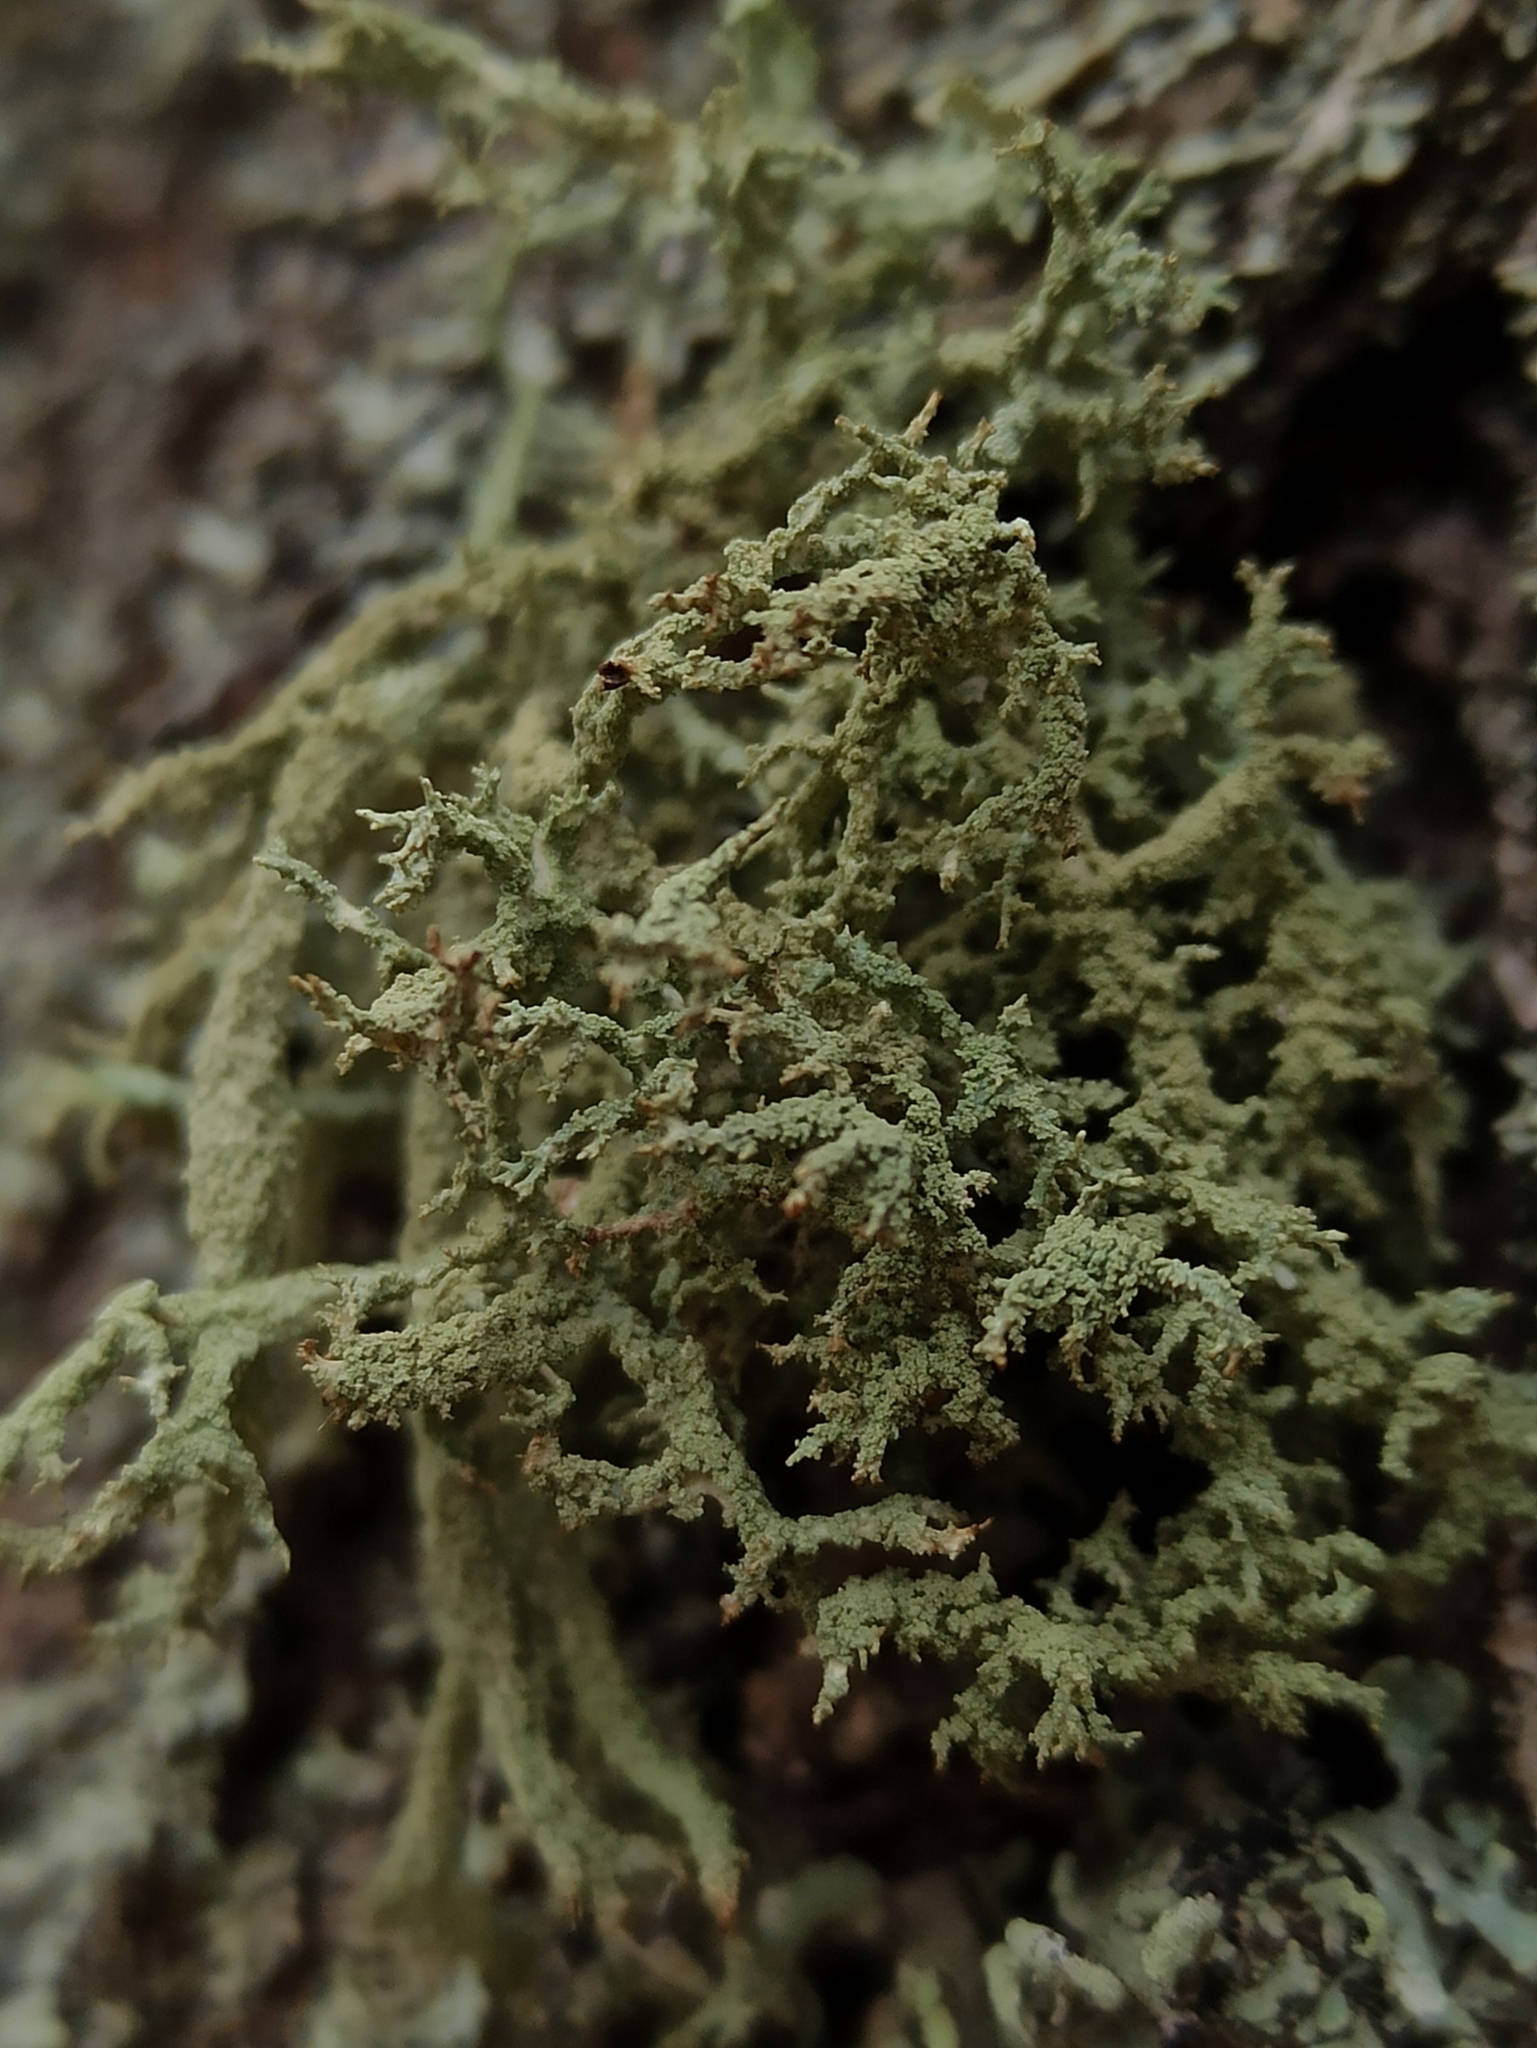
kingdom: Fungi
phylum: Ascomycota
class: Lecanoromycetes
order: Lecanorales
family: Parmeliaceae
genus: Evernia
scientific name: Evernia mesomorpha
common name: Boreal oak moss lichen
